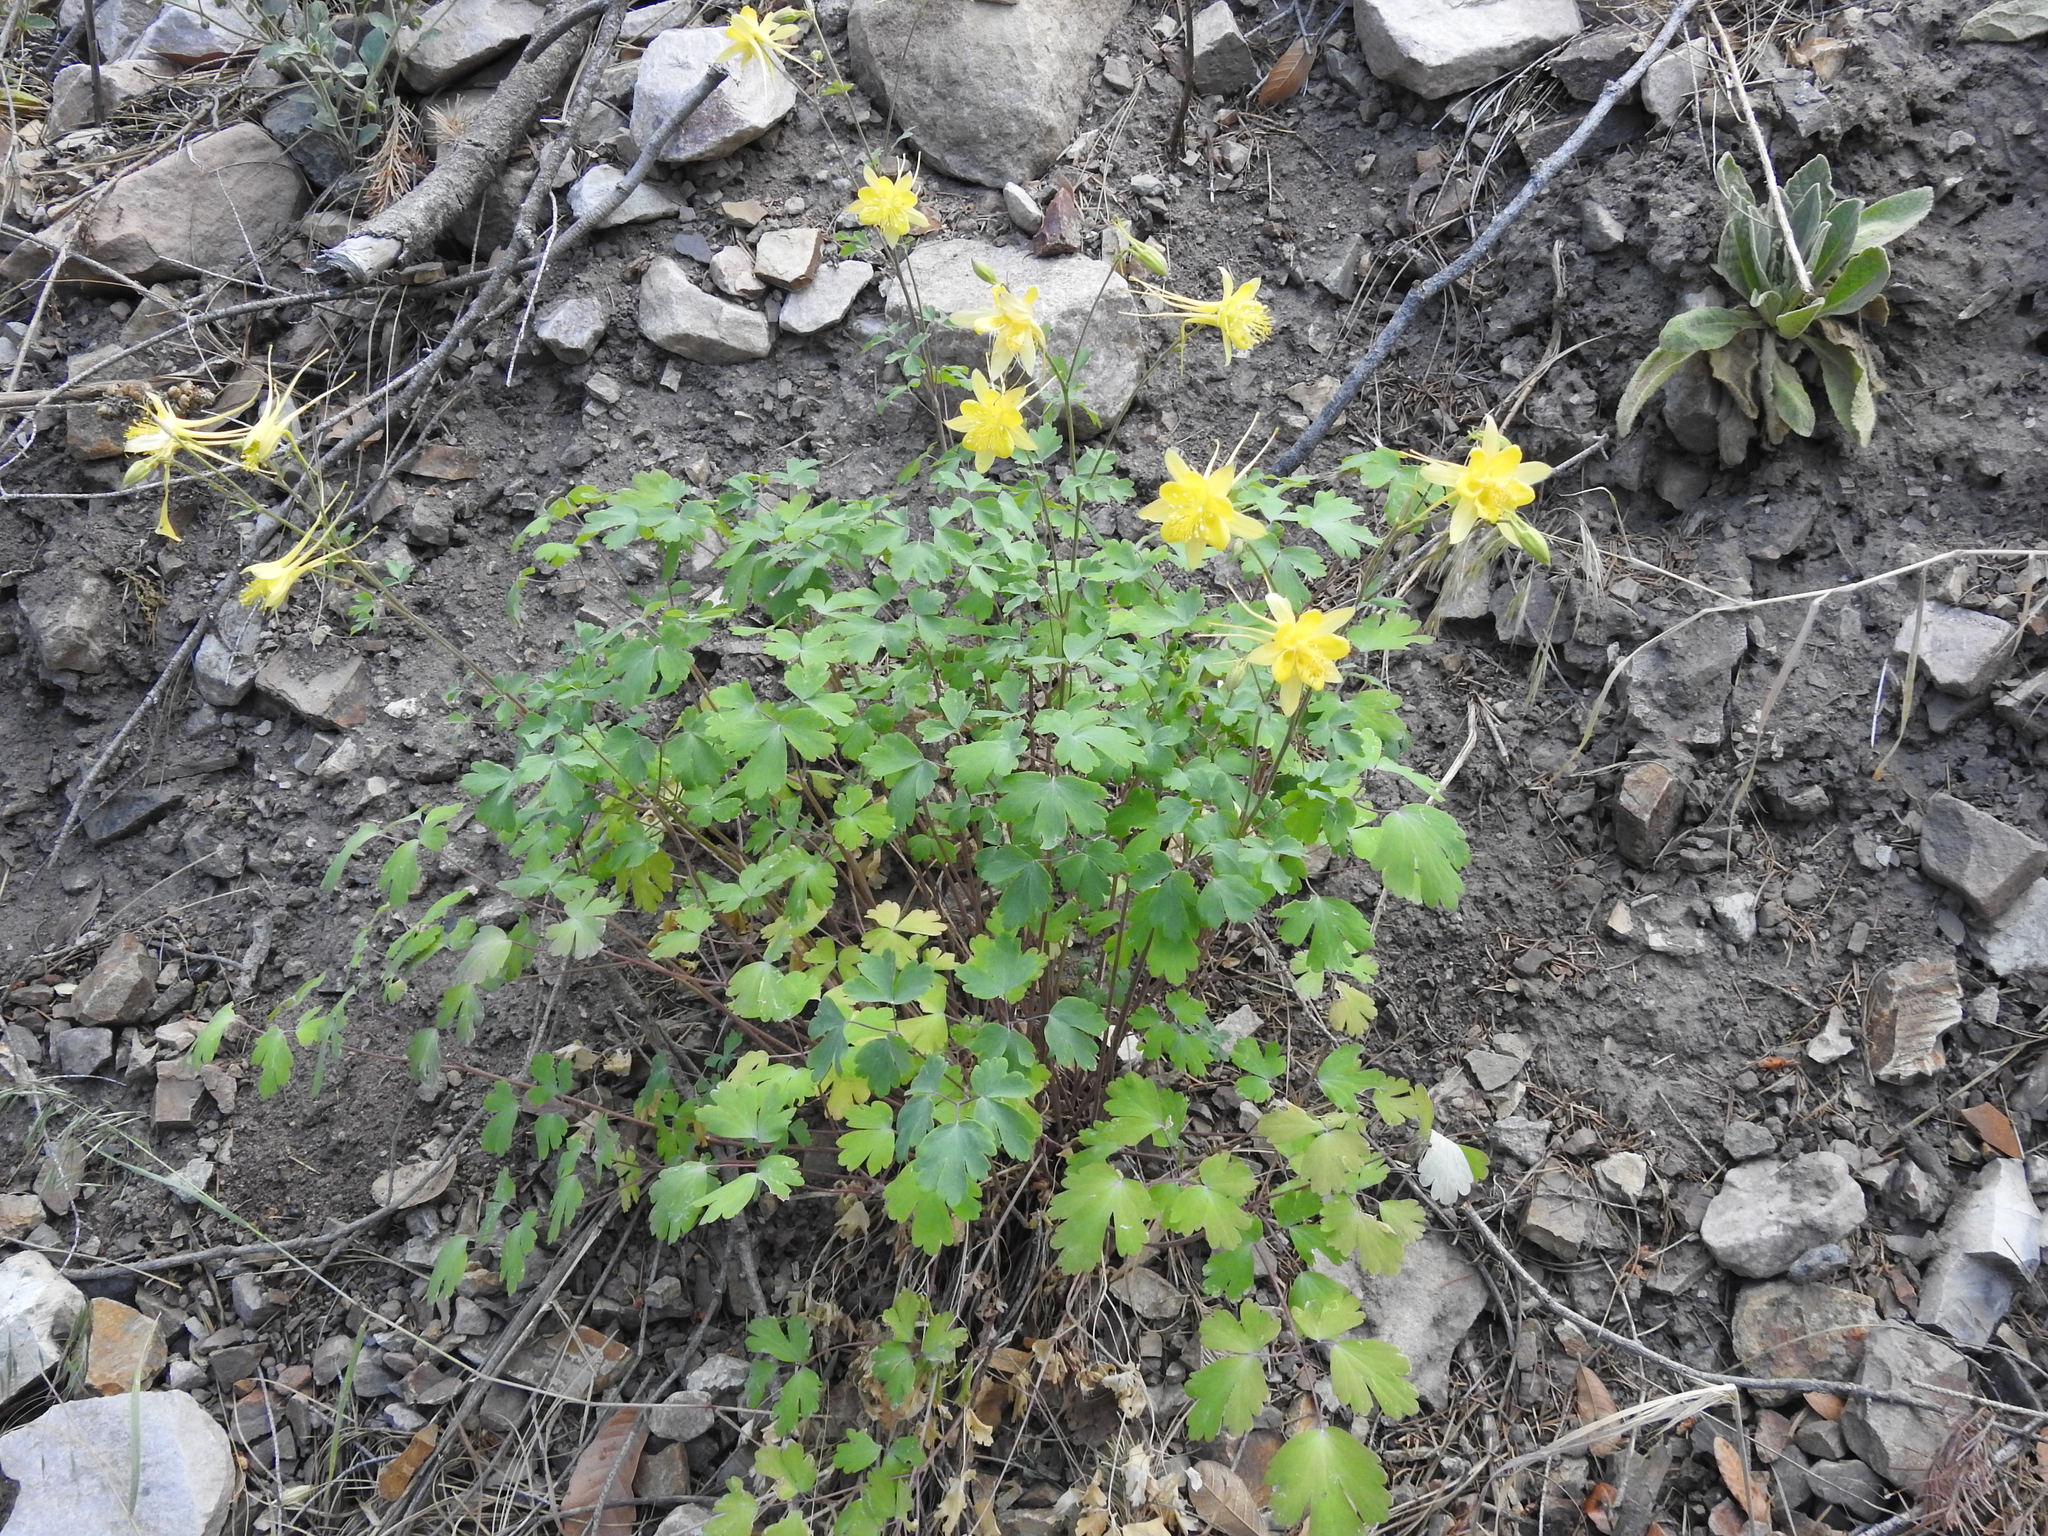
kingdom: Plantae
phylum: Tracheophyta
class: Magnoliopsida
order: Ranunculales
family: Ranunculaceae
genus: Aquilegia
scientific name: Aquilegia chrysantha
